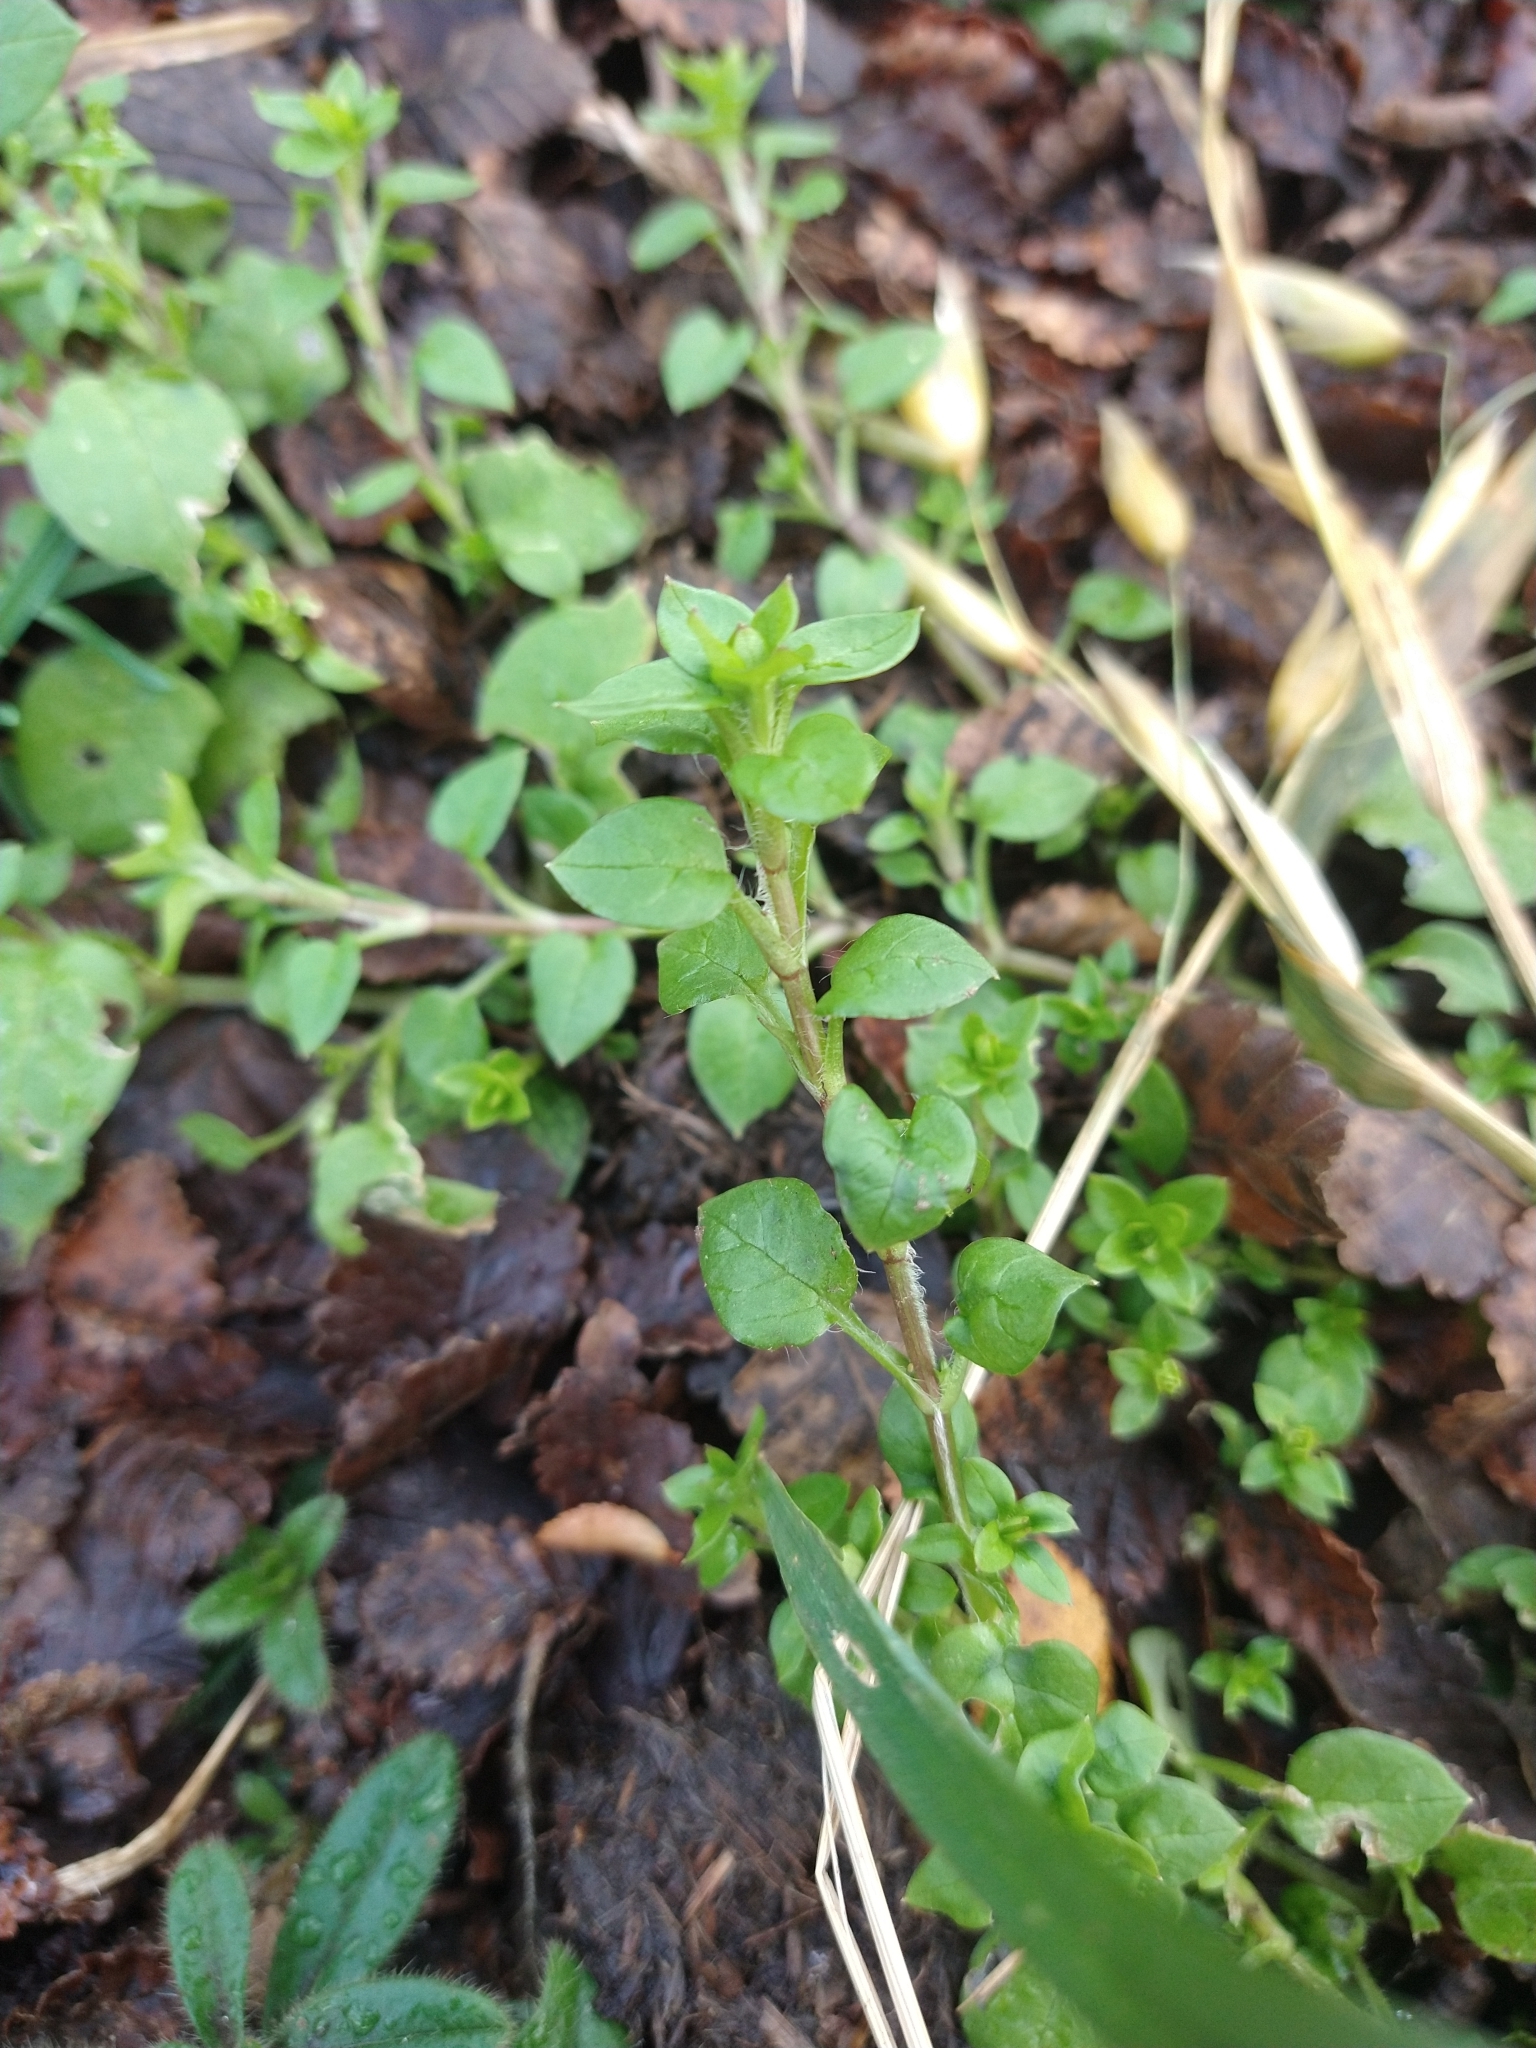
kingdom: Plantae
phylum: Tracheophyta
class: Magnoliopsida
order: Caryophyllales
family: Caryophyllaceae
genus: Stellaria
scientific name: Stellaria media
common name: Common chickweed
